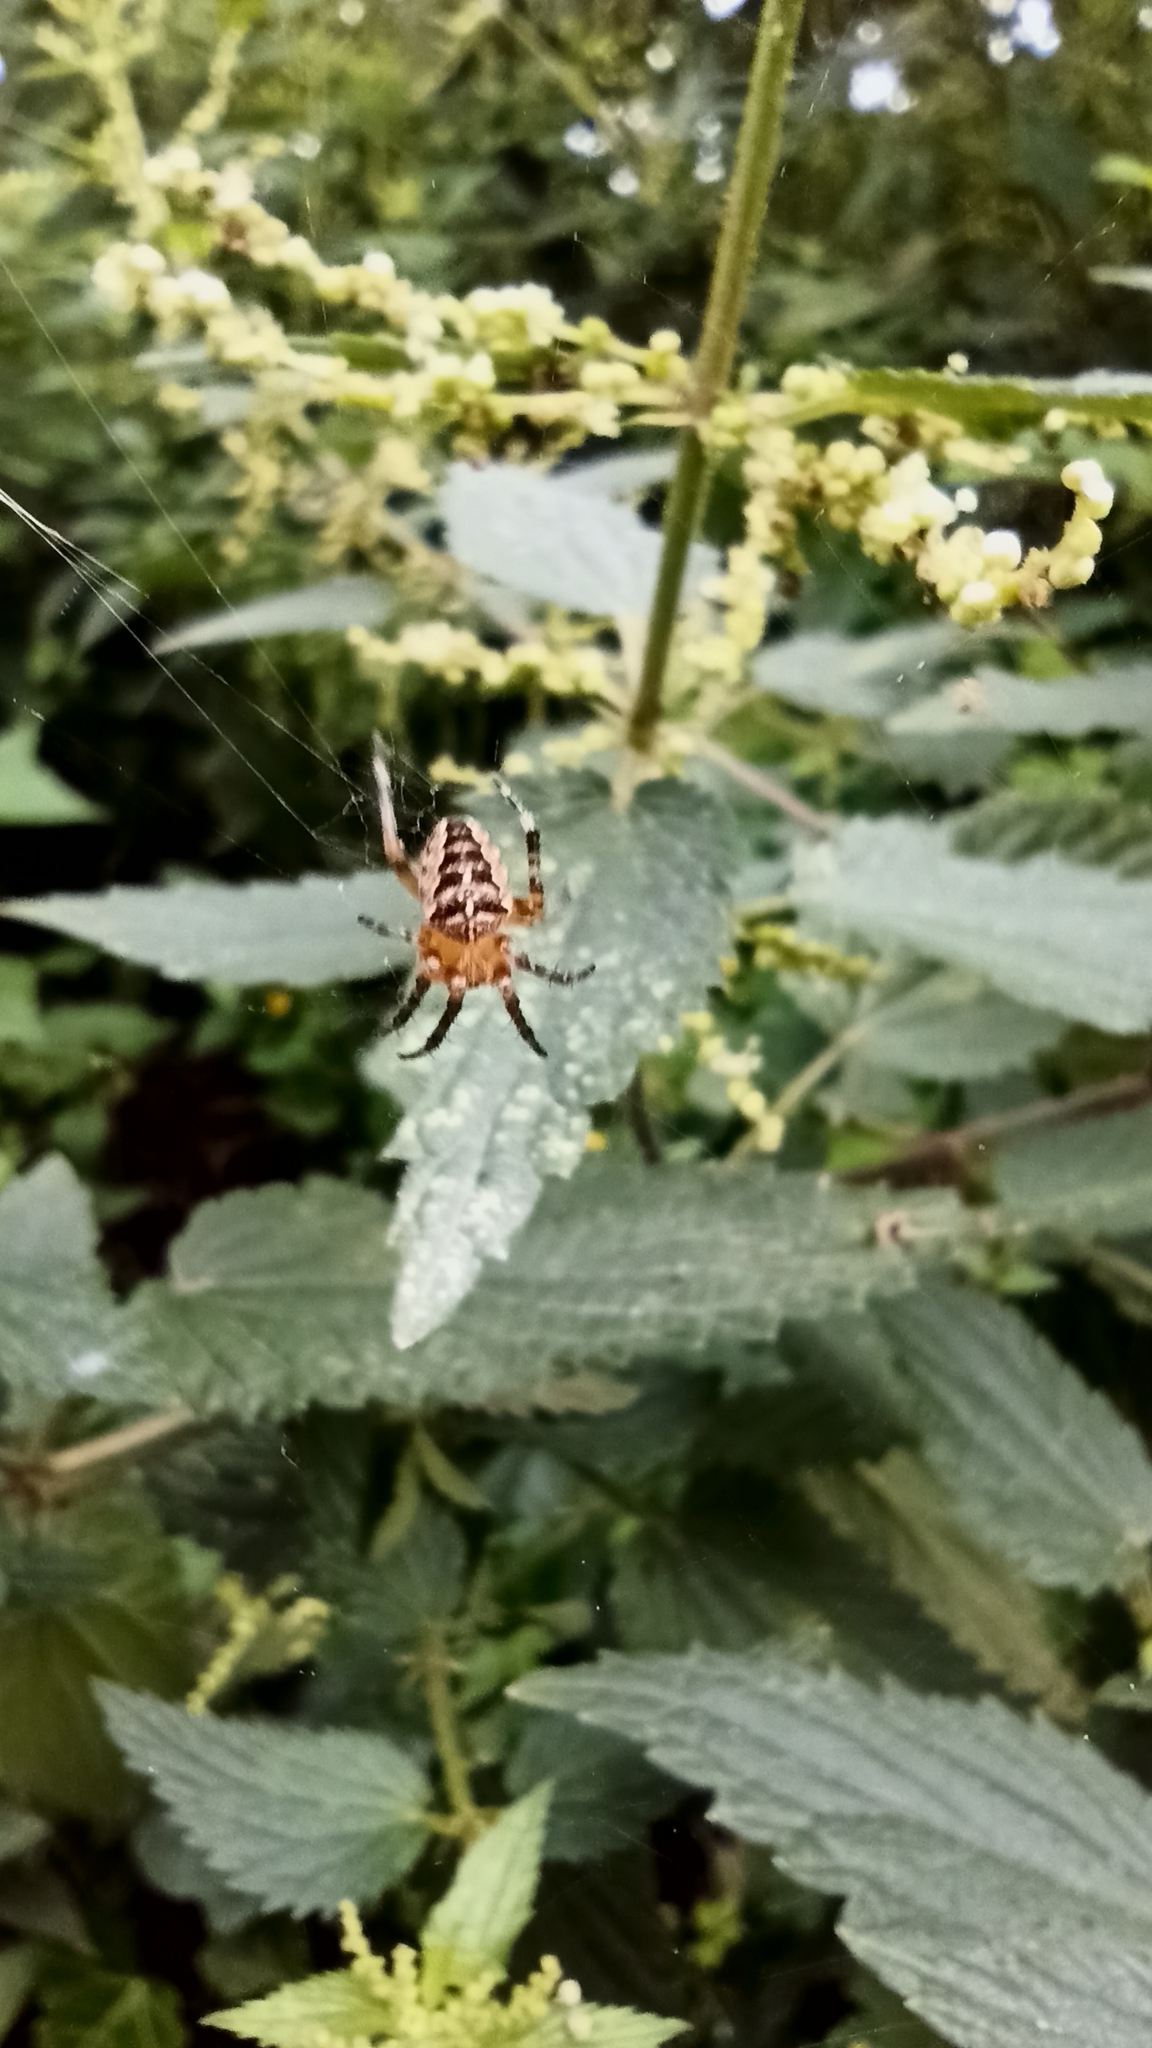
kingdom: Animalia
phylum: Arthropoda
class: Arachnida
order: Araneae
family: Araneidae
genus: Araneus
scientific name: Araneus diadematus
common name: Cross orbweaver
